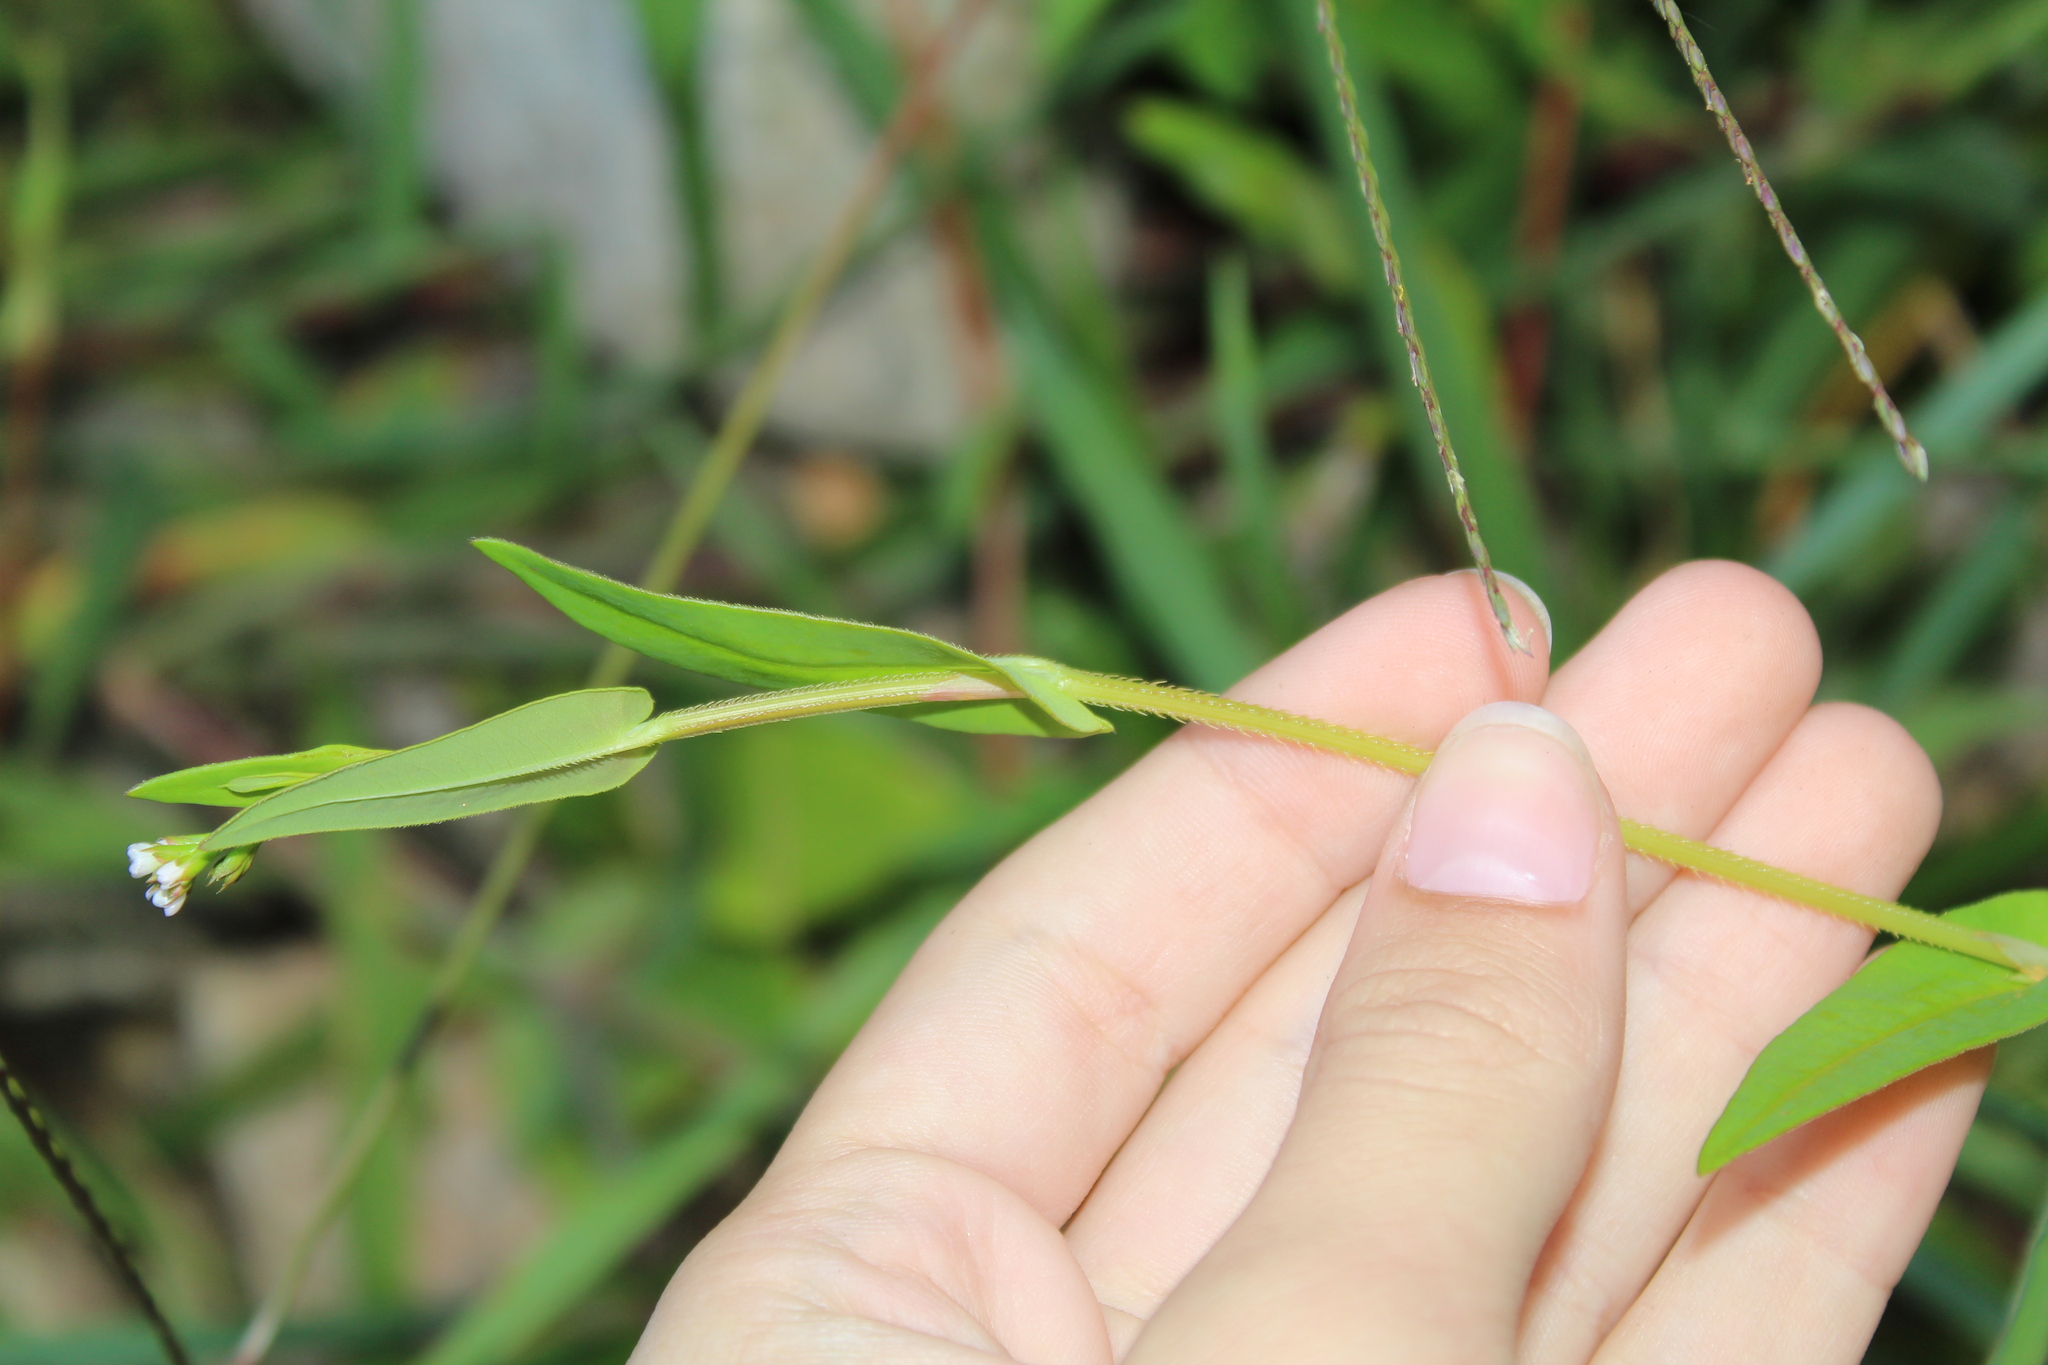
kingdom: Plantae
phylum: Tracheophyta
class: Magnoliopsida
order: Caryophyllales
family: Polygonaceae
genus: Persicaria
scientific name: Persicaria sagittata
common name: American tearthumb
